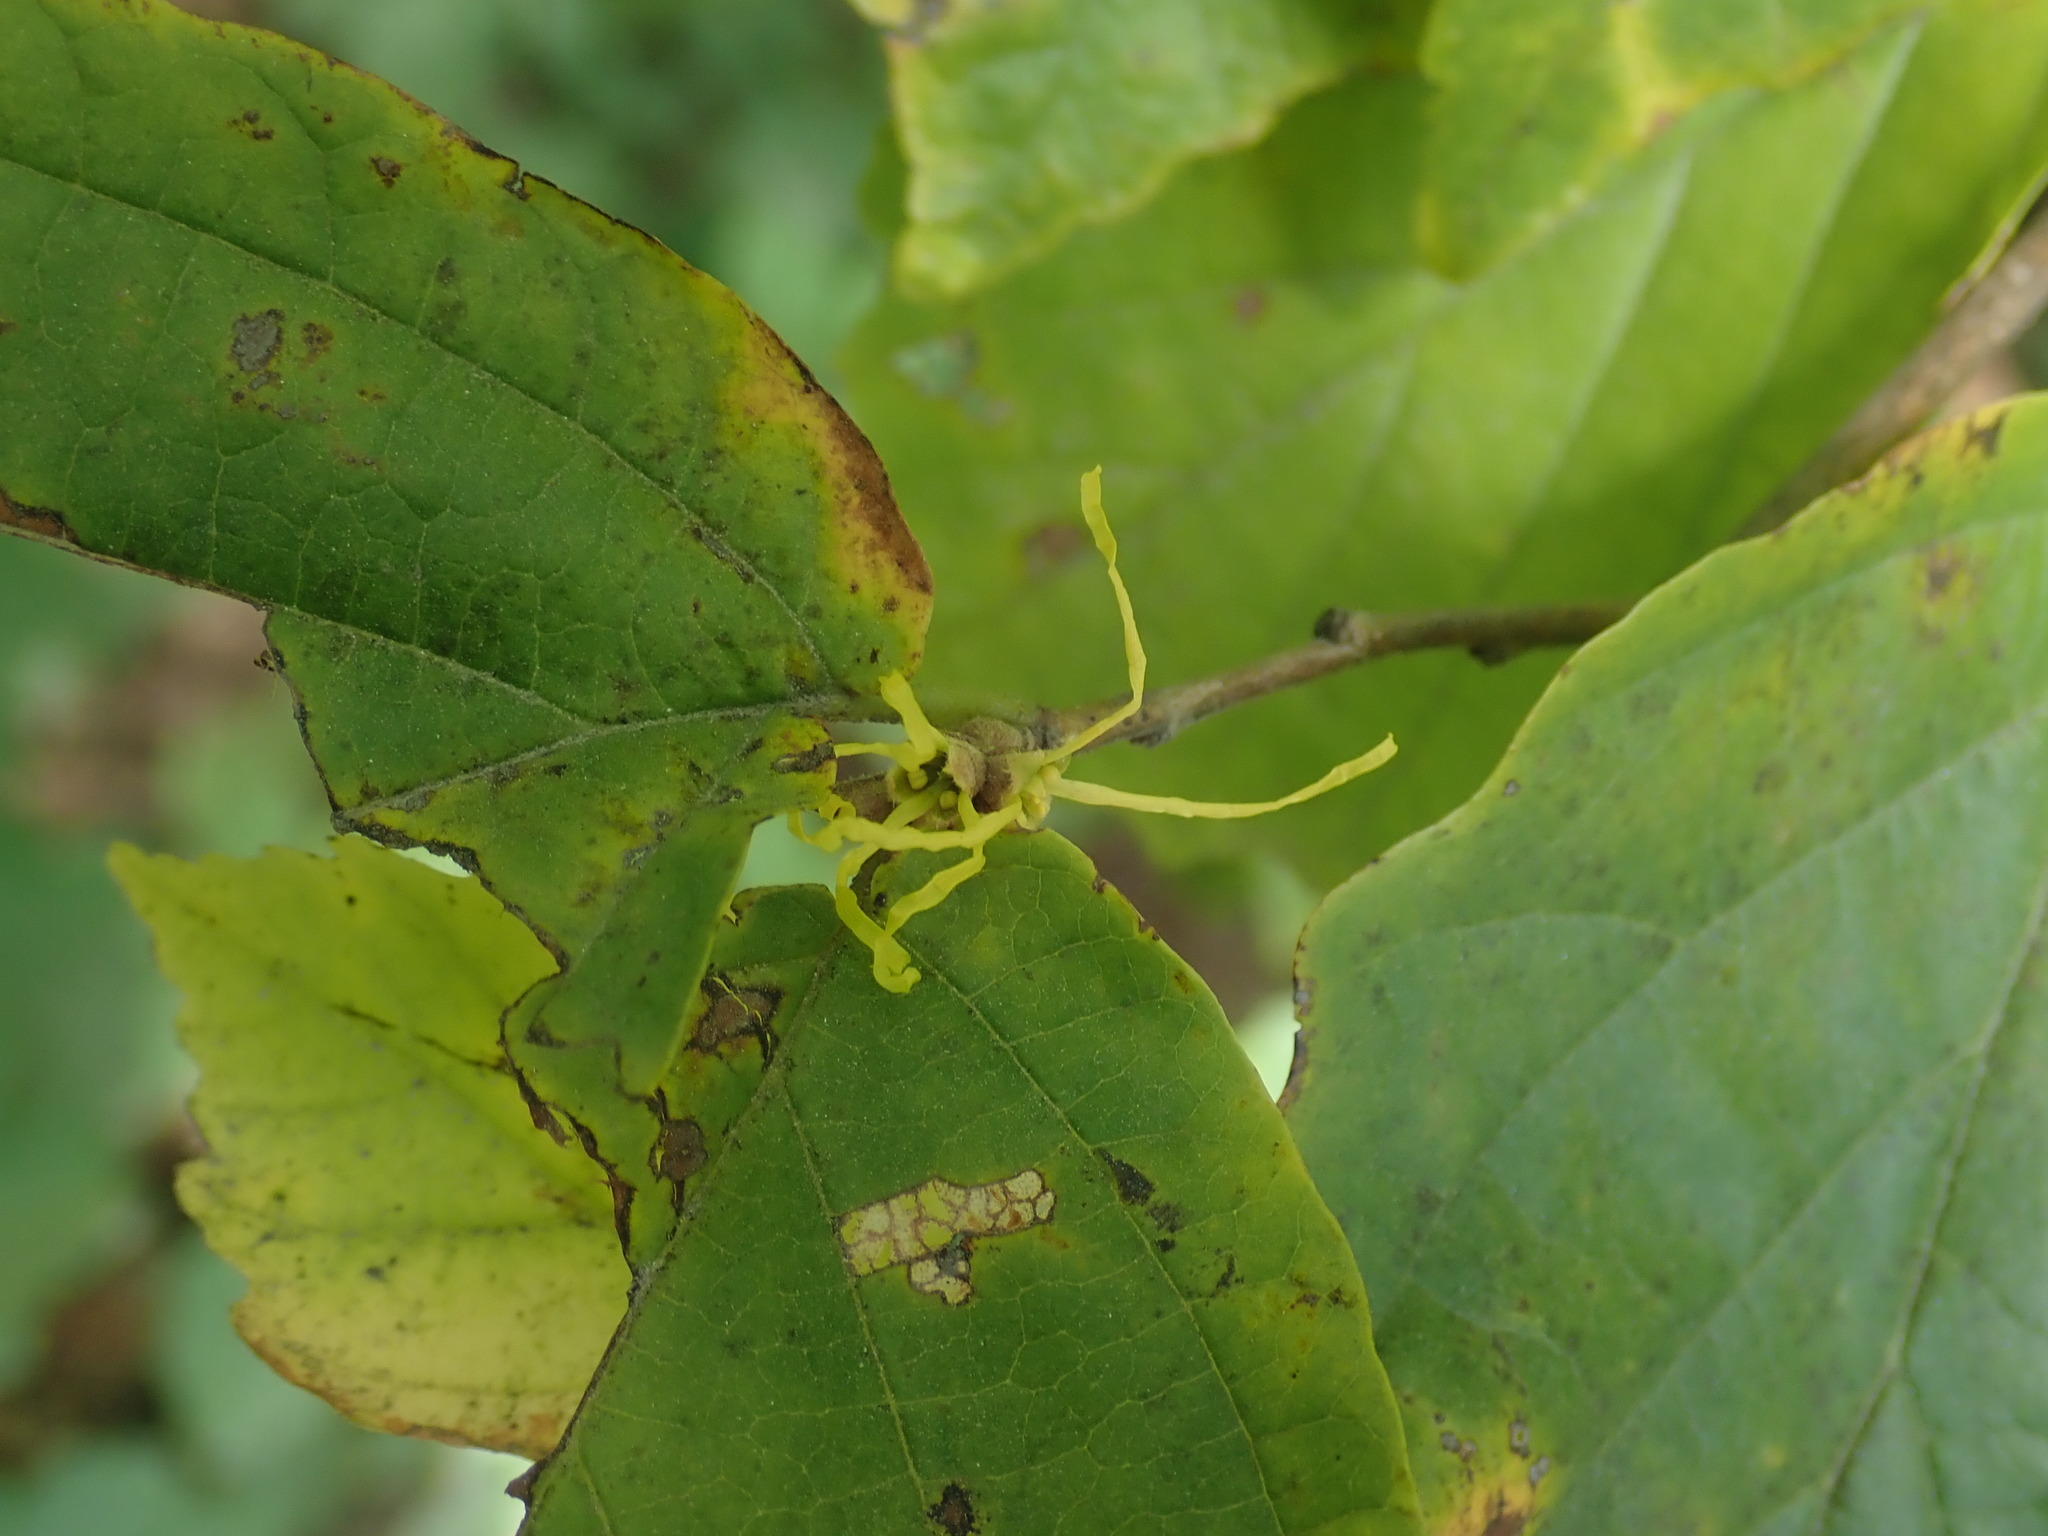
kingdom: Plantae
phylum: Tracheophyta
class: Magnoliopsida
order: Saxifragales
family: Hamamelidaceae
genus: Hamamelis
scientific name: Hamamelis virginiana
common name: Witch-hazel
